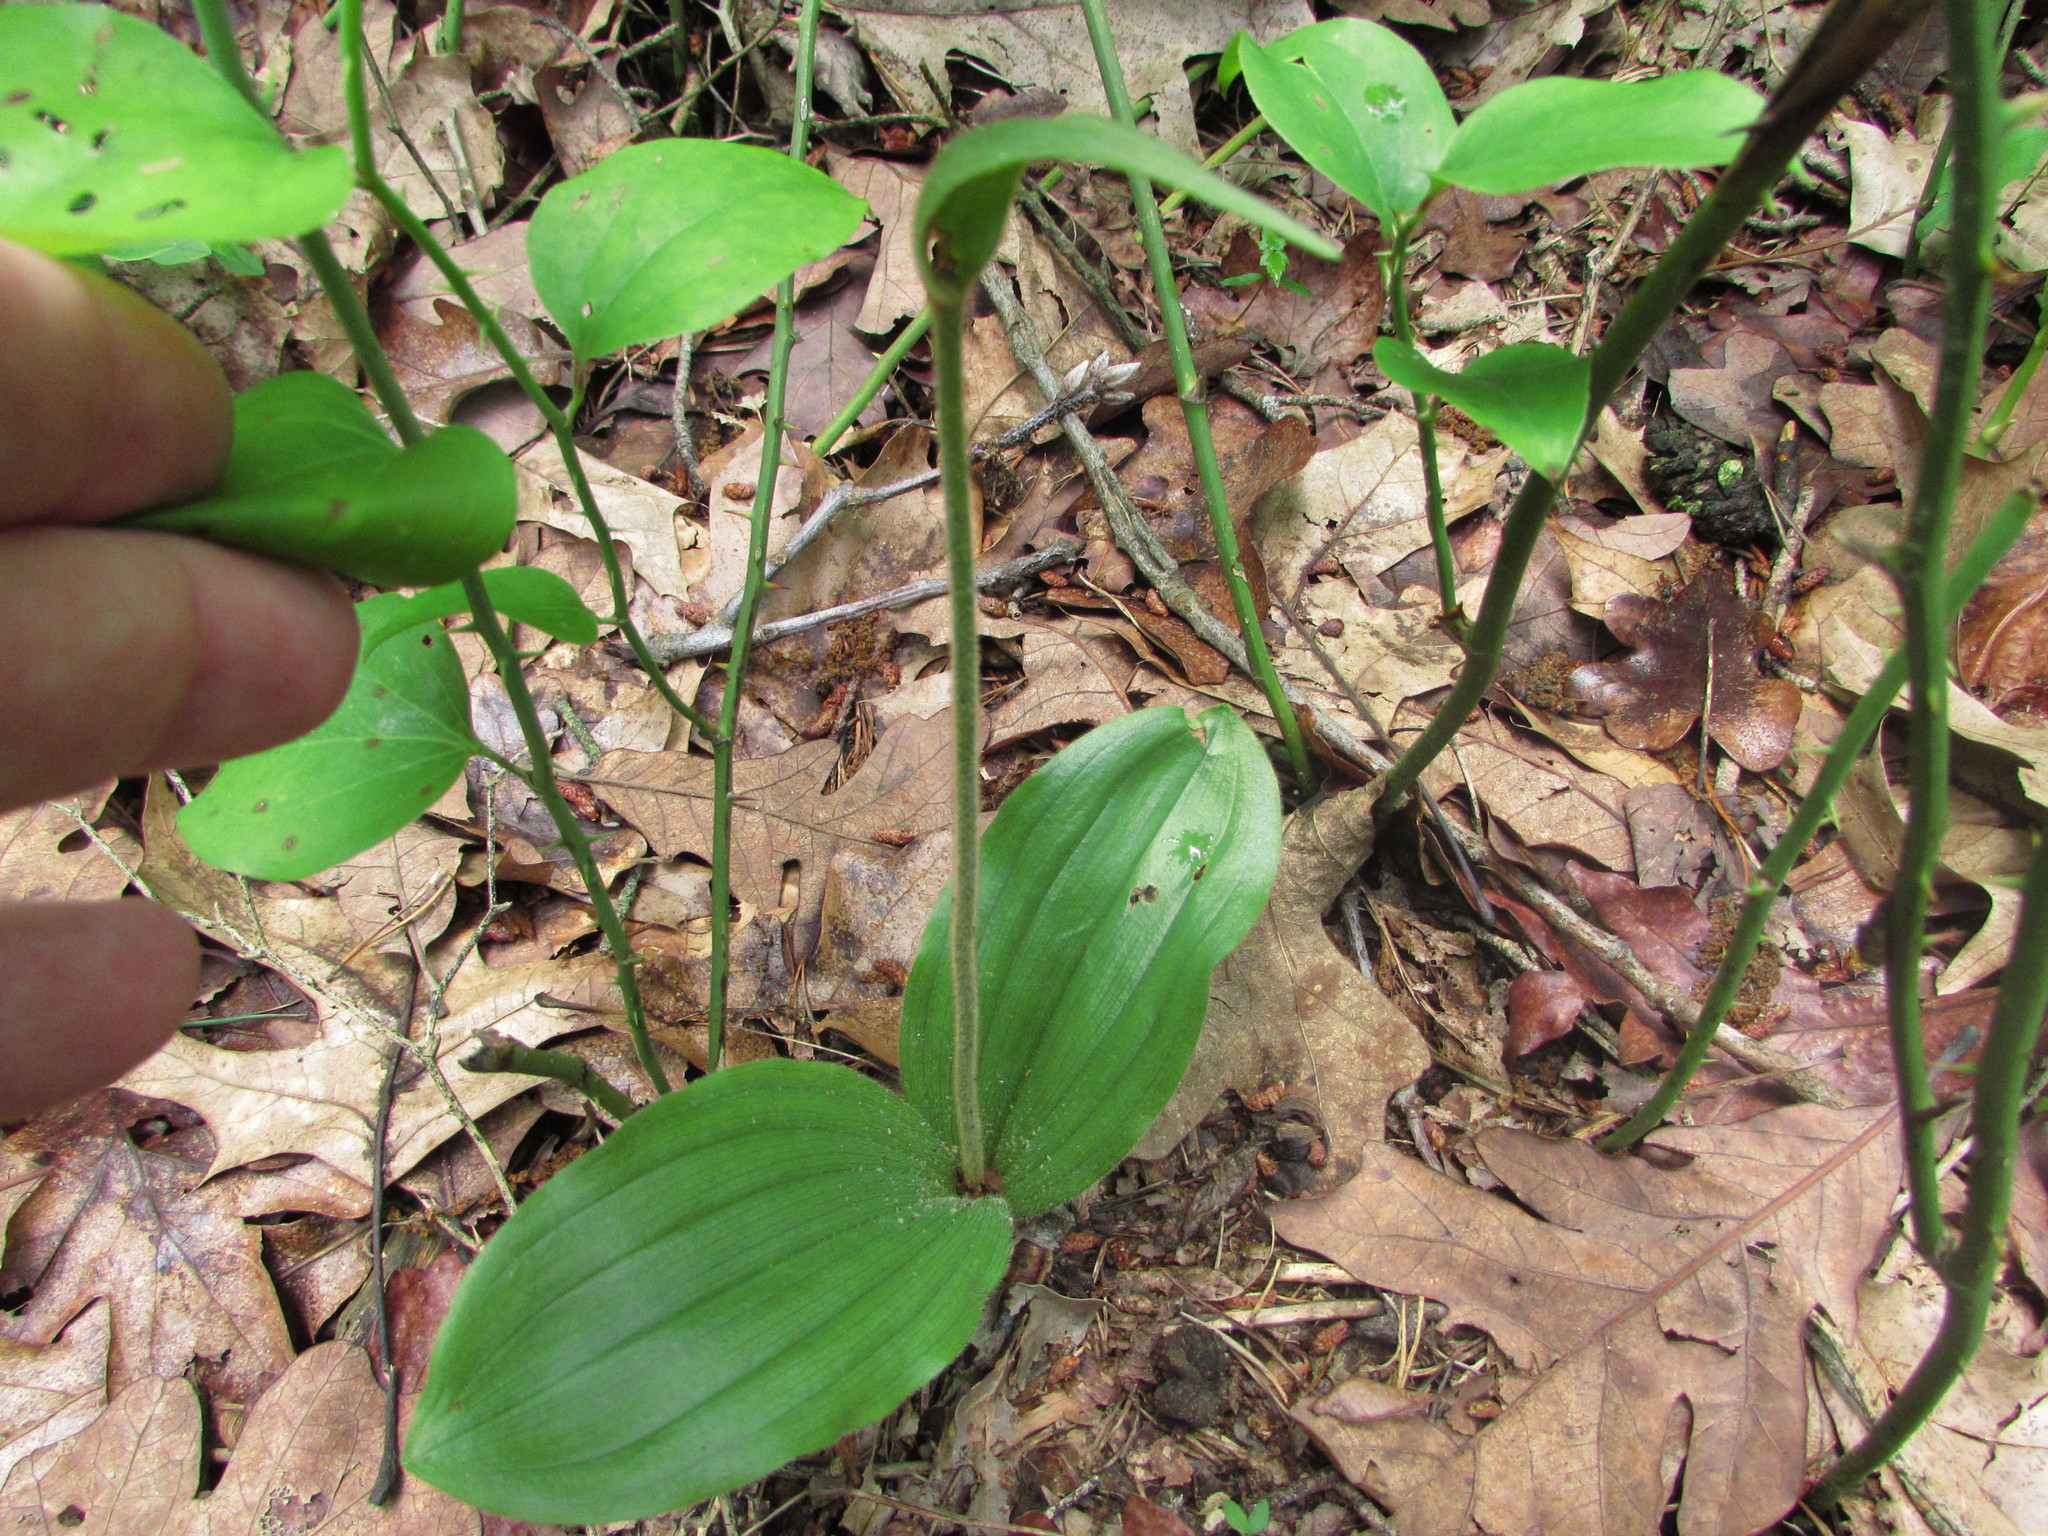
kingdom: Plantae
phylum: Tracheophyta
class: Liliopsida
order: Asparagales
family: Orchidaceae
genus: Cypripedium
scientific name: Cypripedium acaule
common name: Pink lady's-slipper
